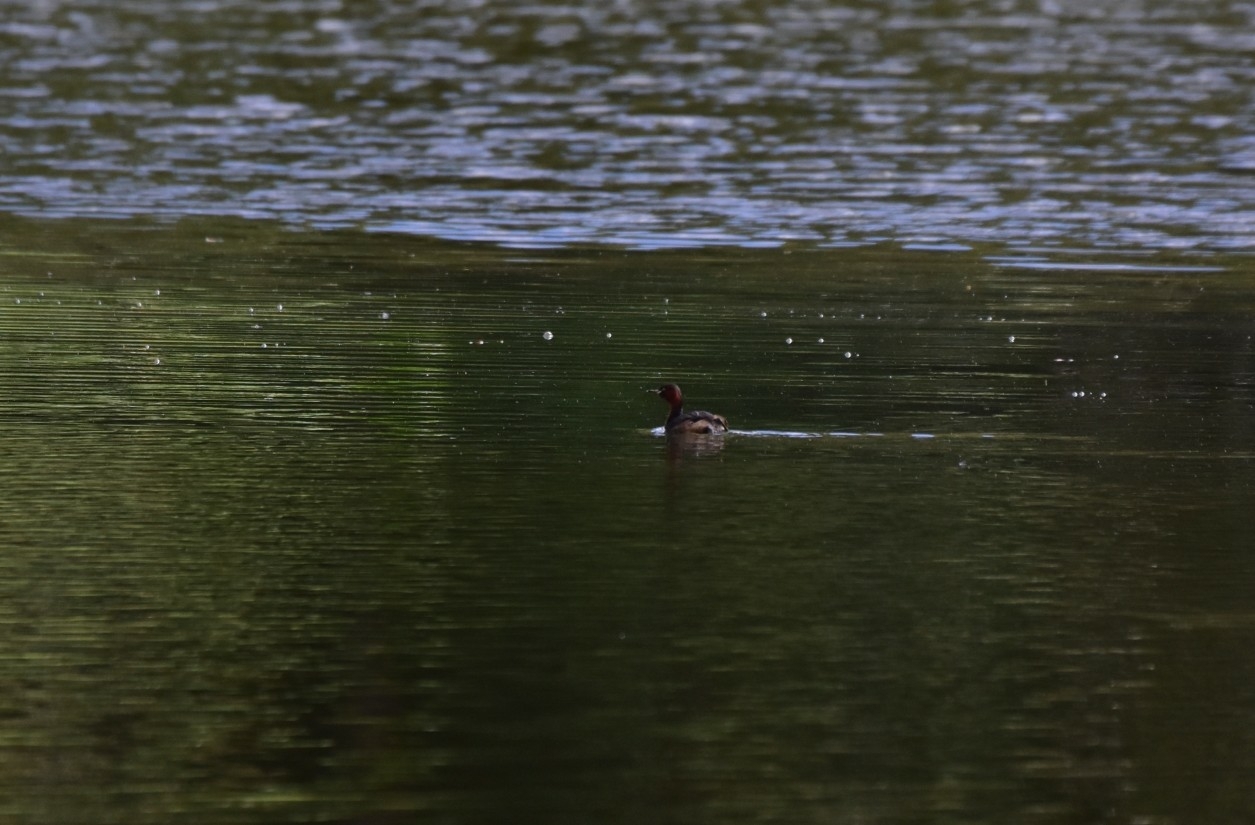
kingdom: Animalia
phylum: Chordata
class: Aves
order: Podicipediformes
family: Podicipedidae
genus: Tachybaptus
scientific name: Tachybaptus ruficollis
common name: Little grebe
